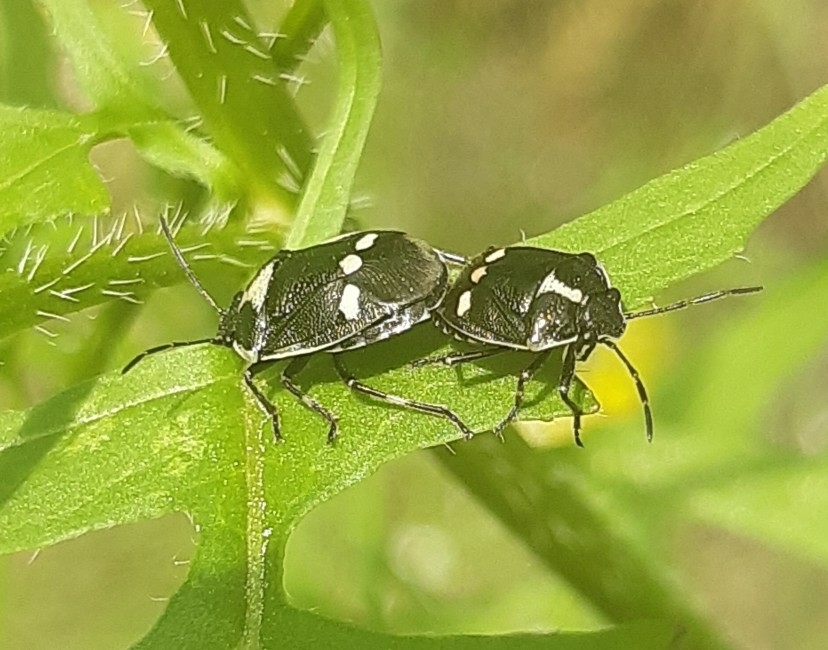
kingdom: Animalia
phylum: Arthropoda
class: Insecta
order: Hemiptera
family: Pentatomidae
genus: Eurydema
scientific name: Eurydema oleracea
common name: Cabbage bug
